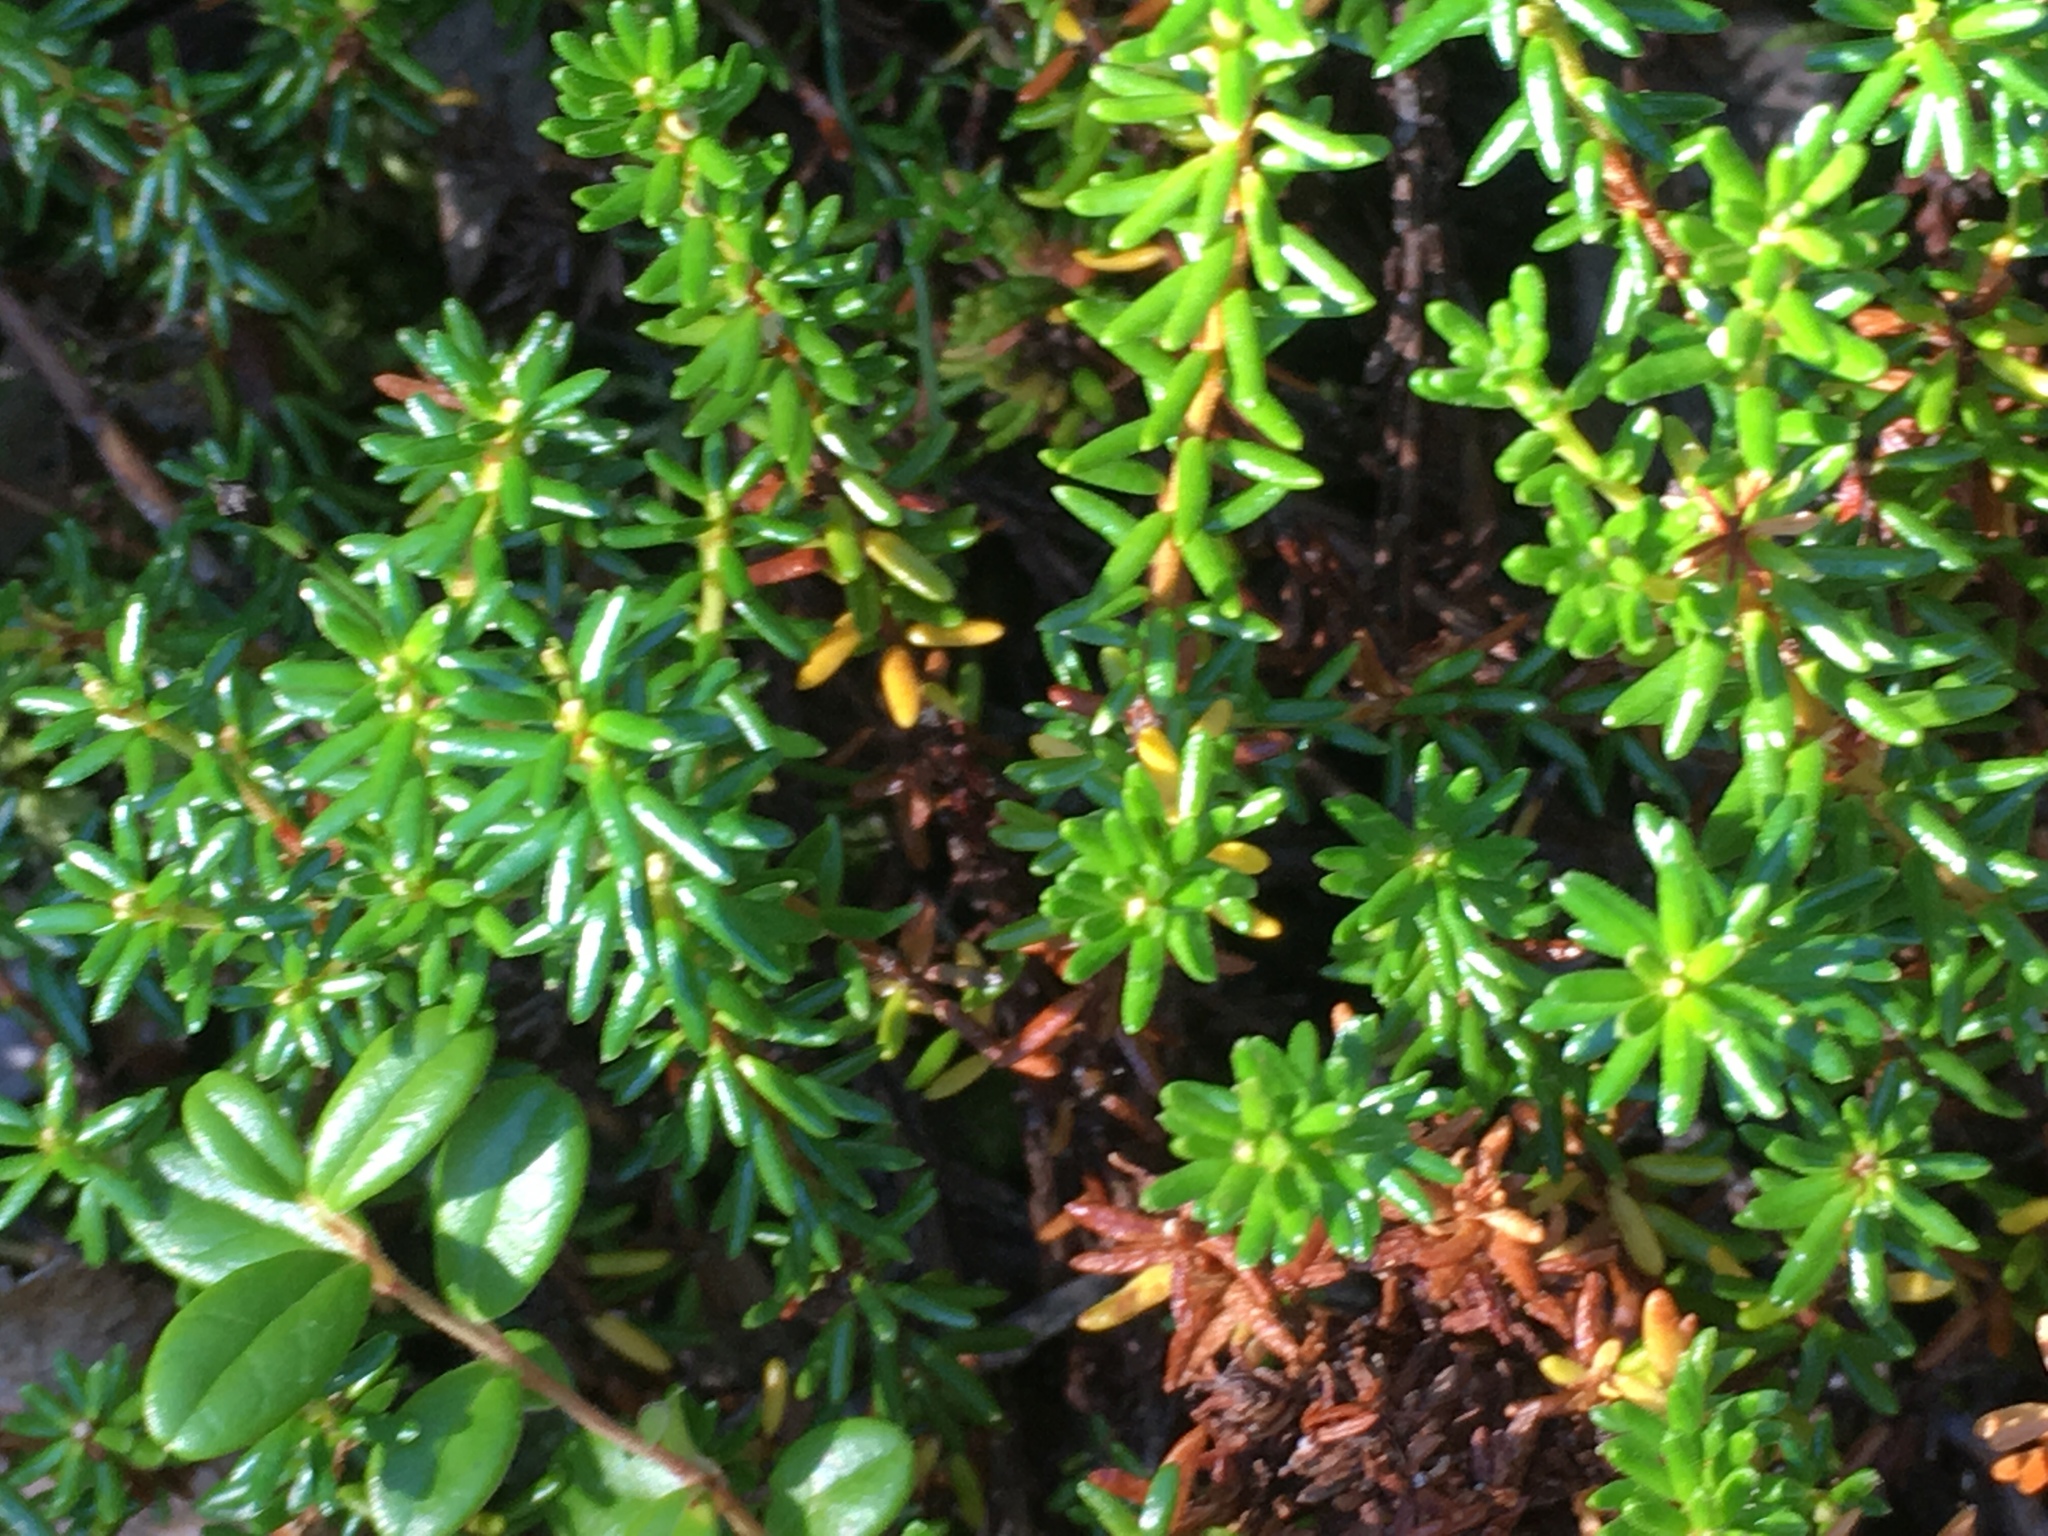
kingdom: Plantae
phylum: Tracheophyta
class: Magnoliopsida
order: Ericales
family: Ericaceae
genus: Empetrum
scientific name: Empetrum nigrum
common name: Black crowberry
